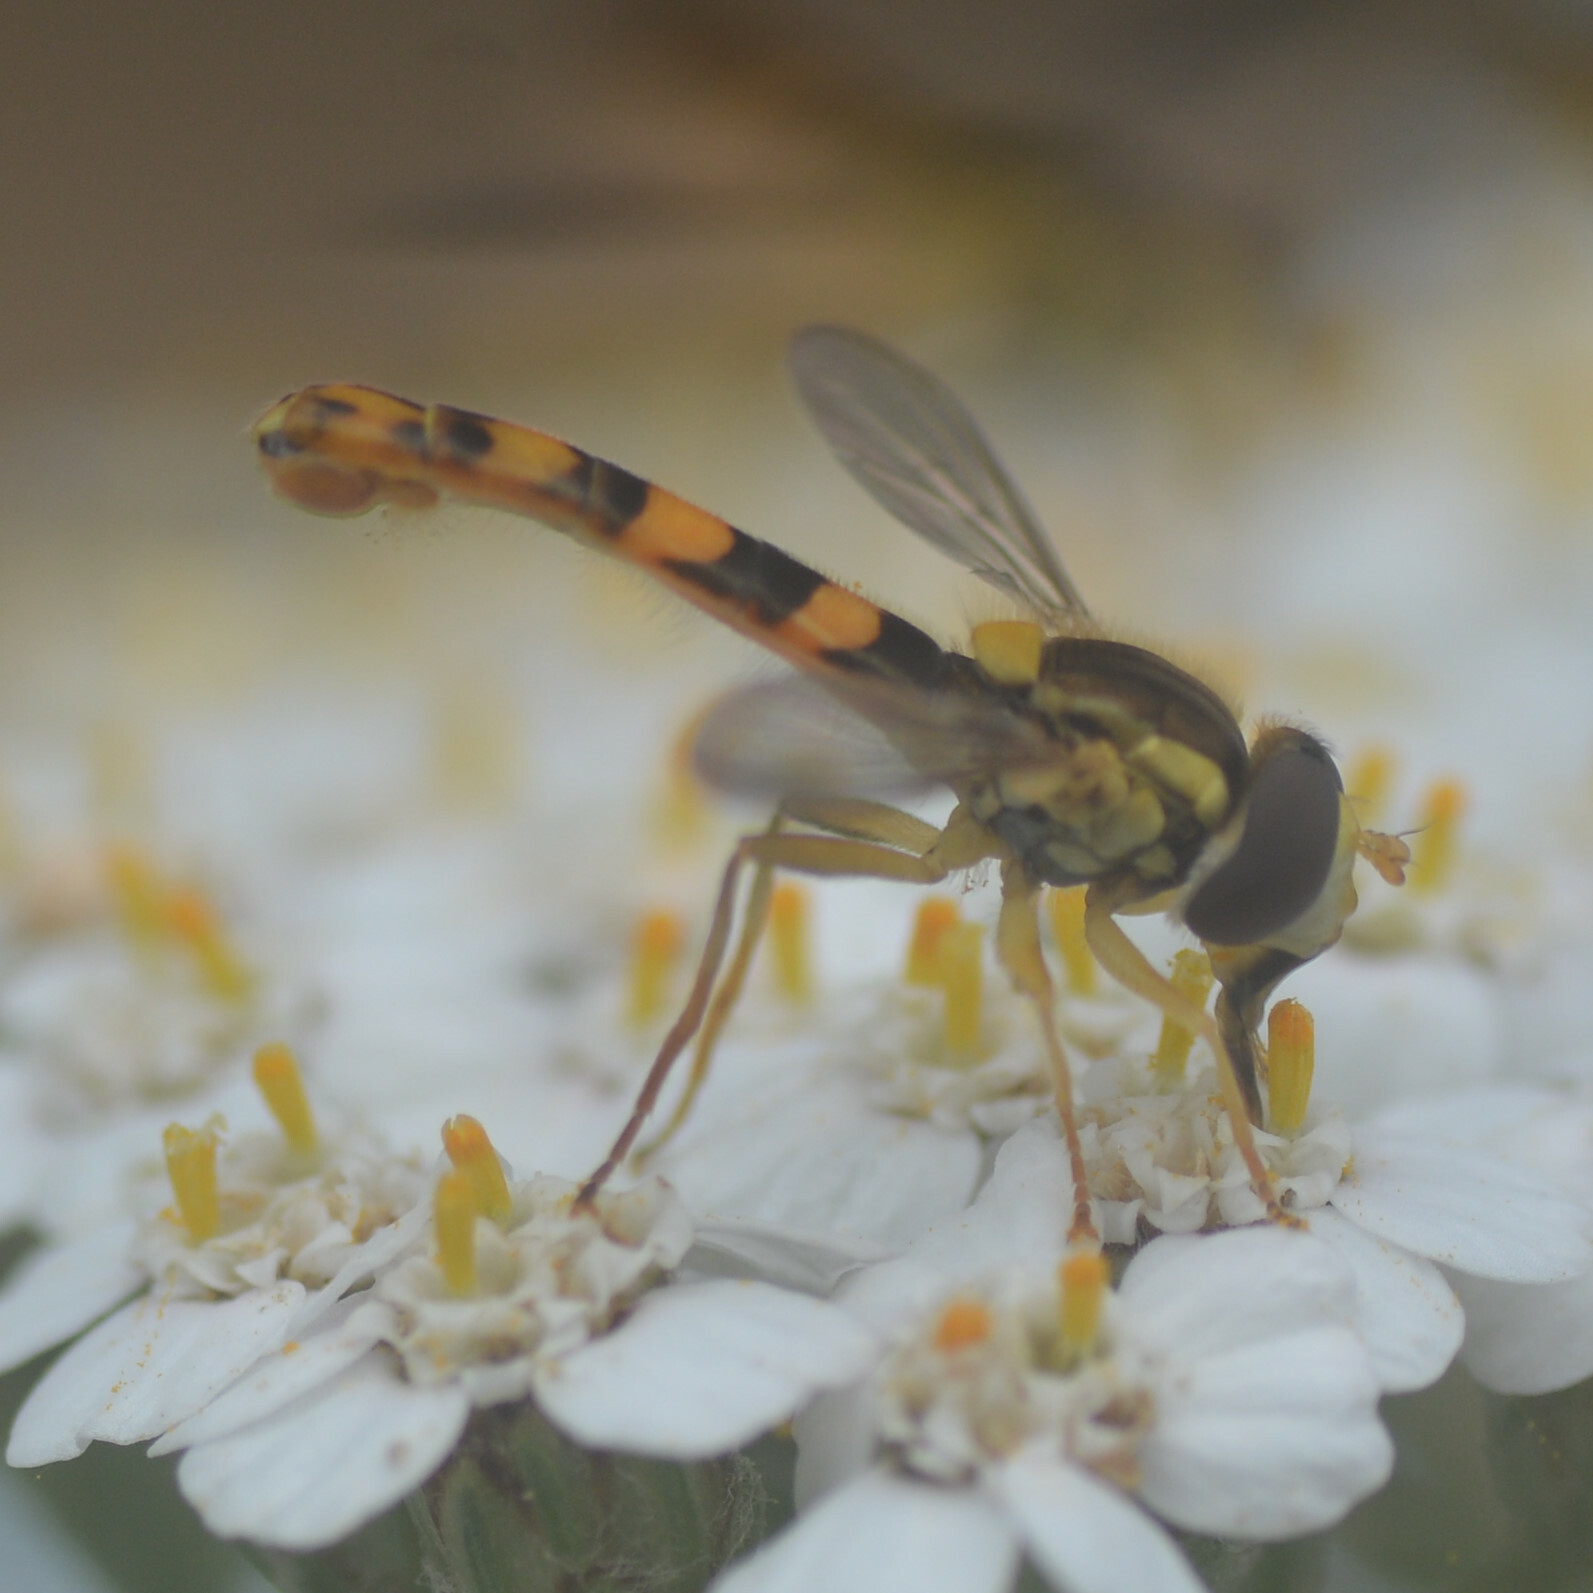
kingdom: Animalia
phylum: Arthropoda
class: Insecta
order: Diptera
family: Syrphidae
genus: Sphaerophoria
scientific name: Sphaerophoria scripta
